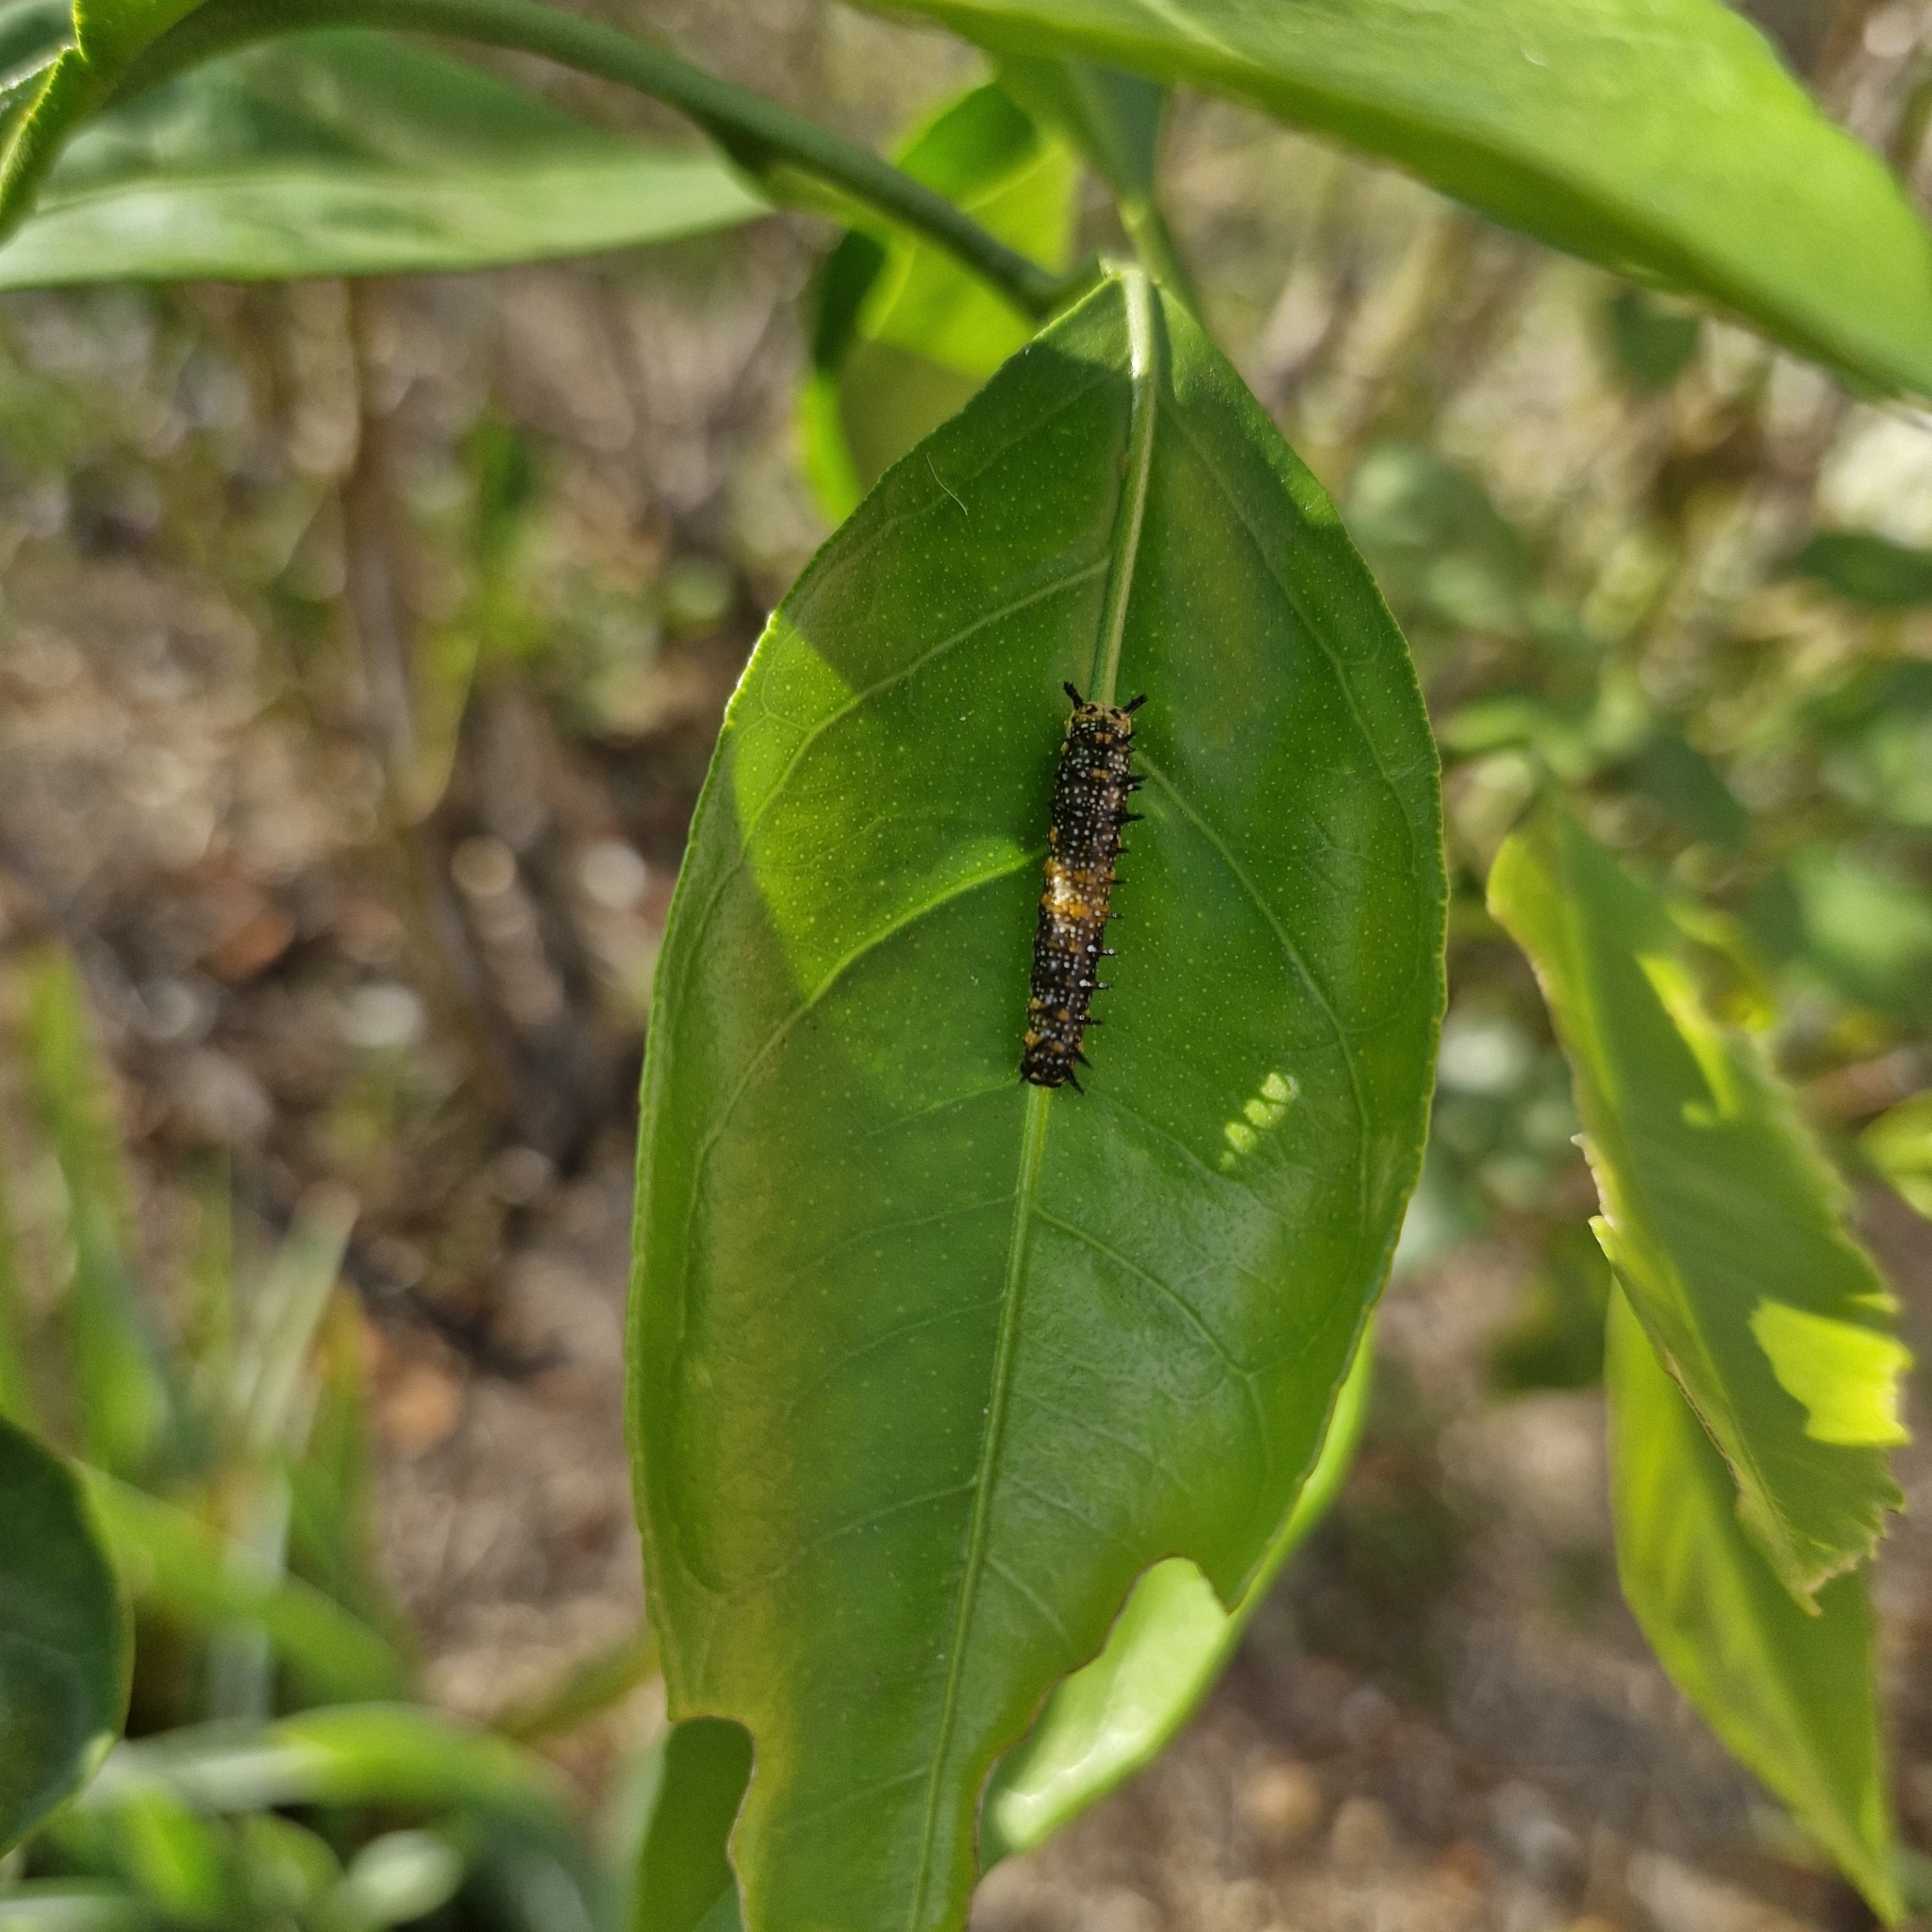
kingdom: Animalia
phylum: Arthropoda
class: Insecta
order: Lepidoptera
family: Papilionidae
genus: Papilio
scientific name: Papilio anactus
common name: Dingy swallowtail
